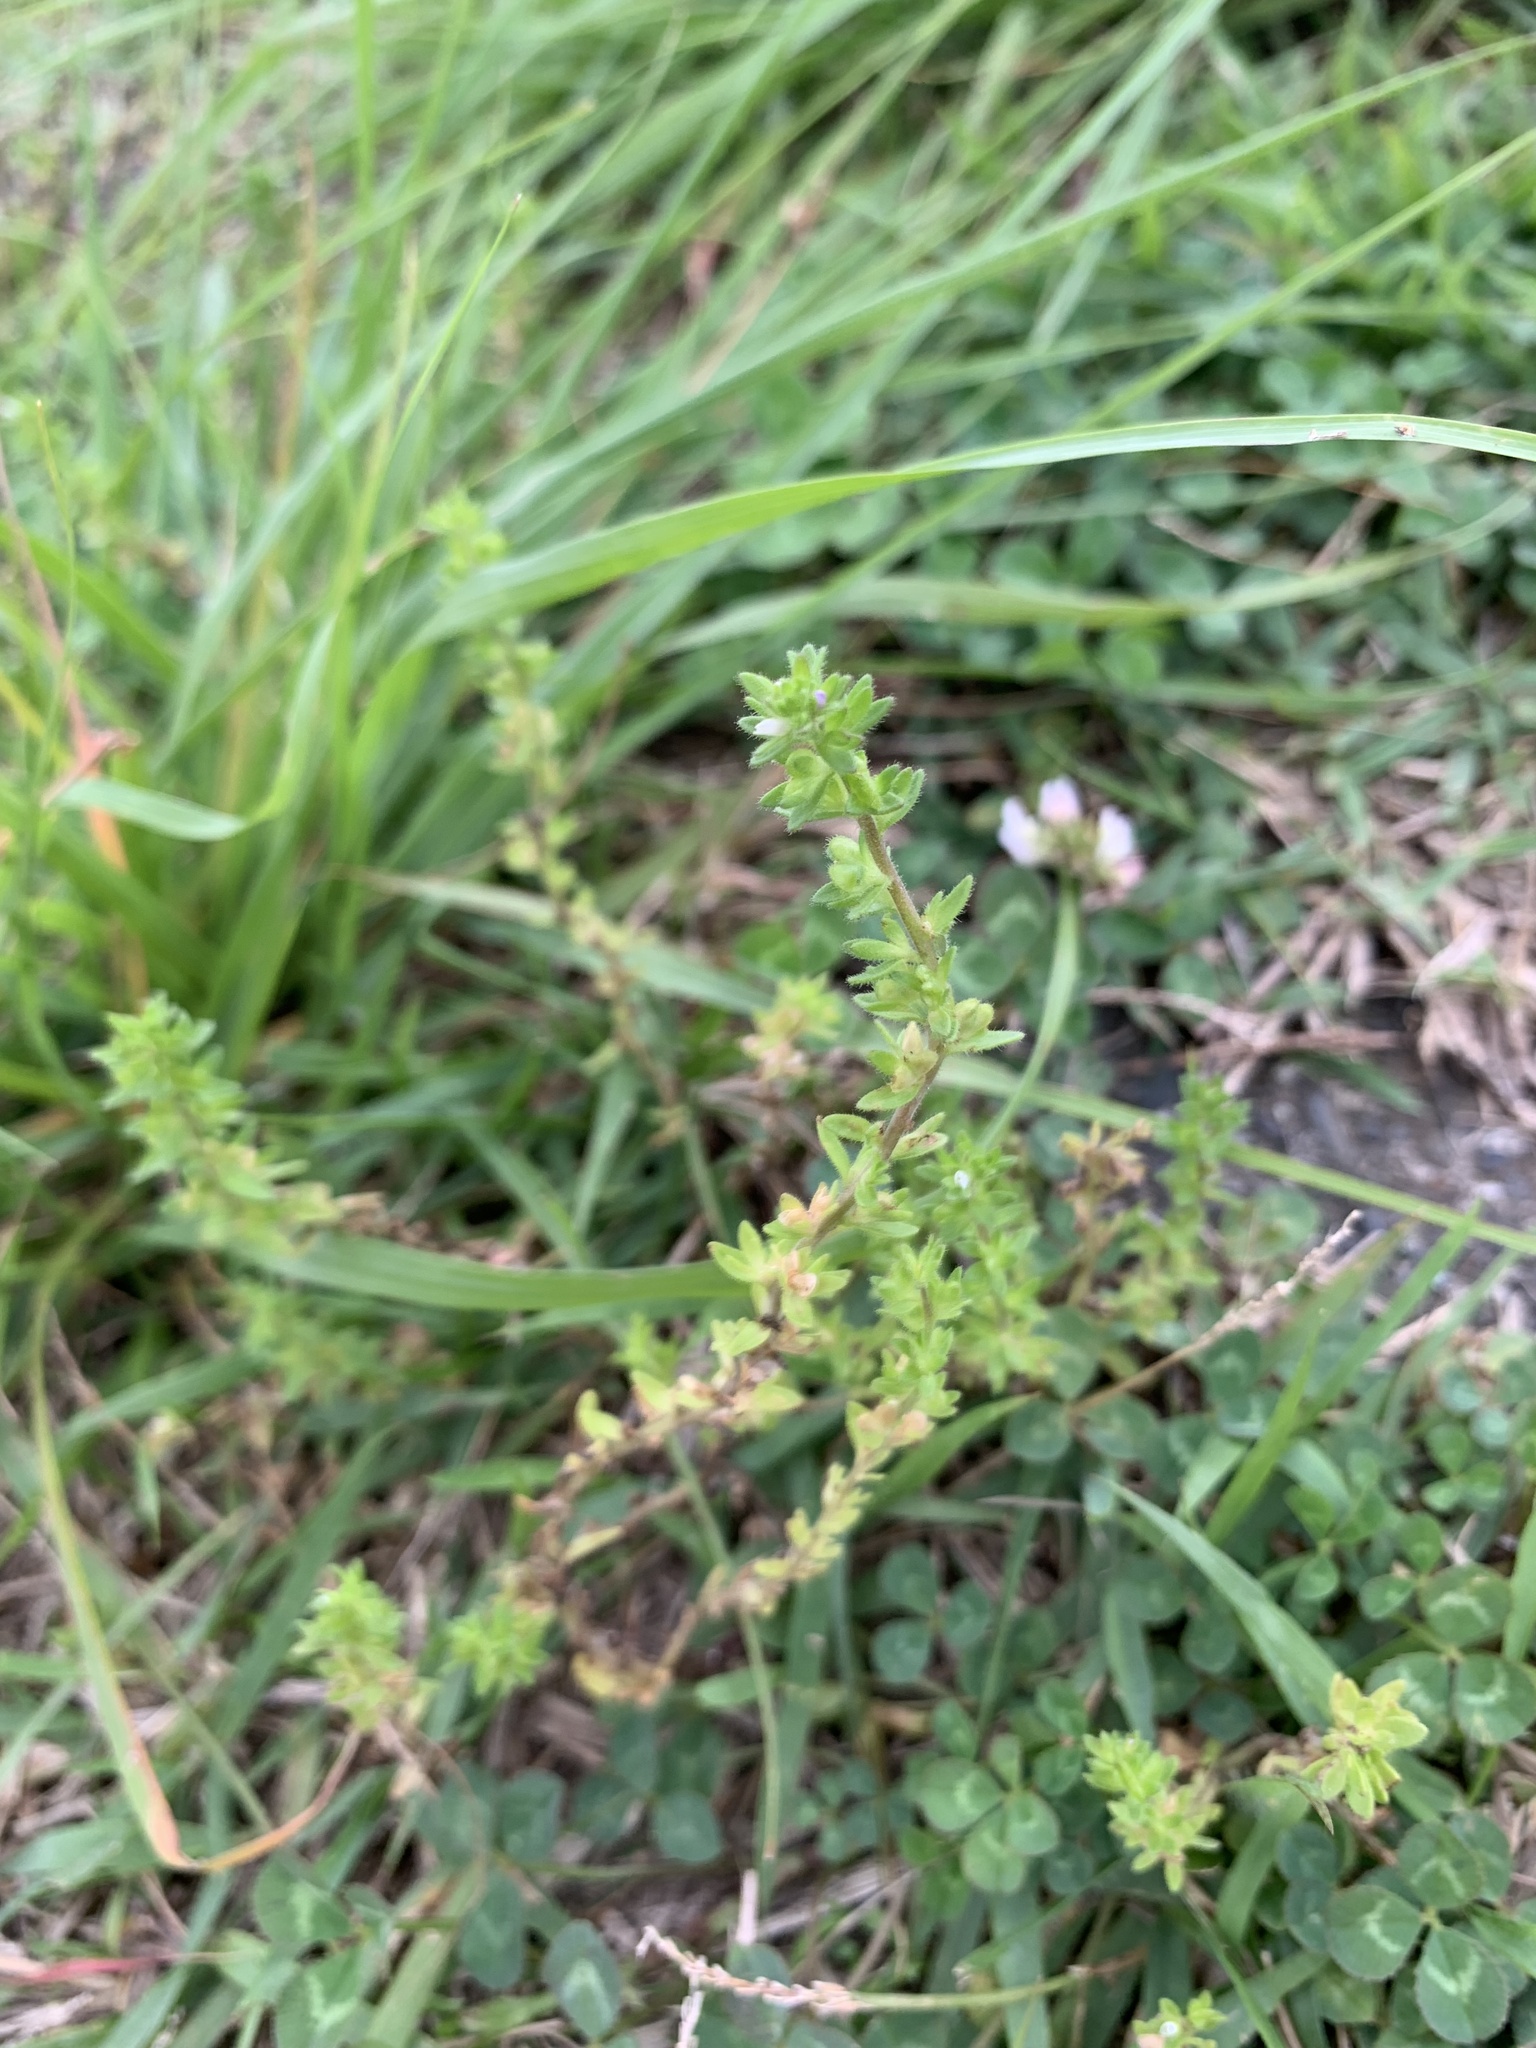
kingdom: Plantae
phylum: Tracheophyta
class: Magnoliopsida
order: Lamiales
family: Plantaginaceae
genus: Veronica
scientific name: Veronica arvensis
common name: Corn speedwell
